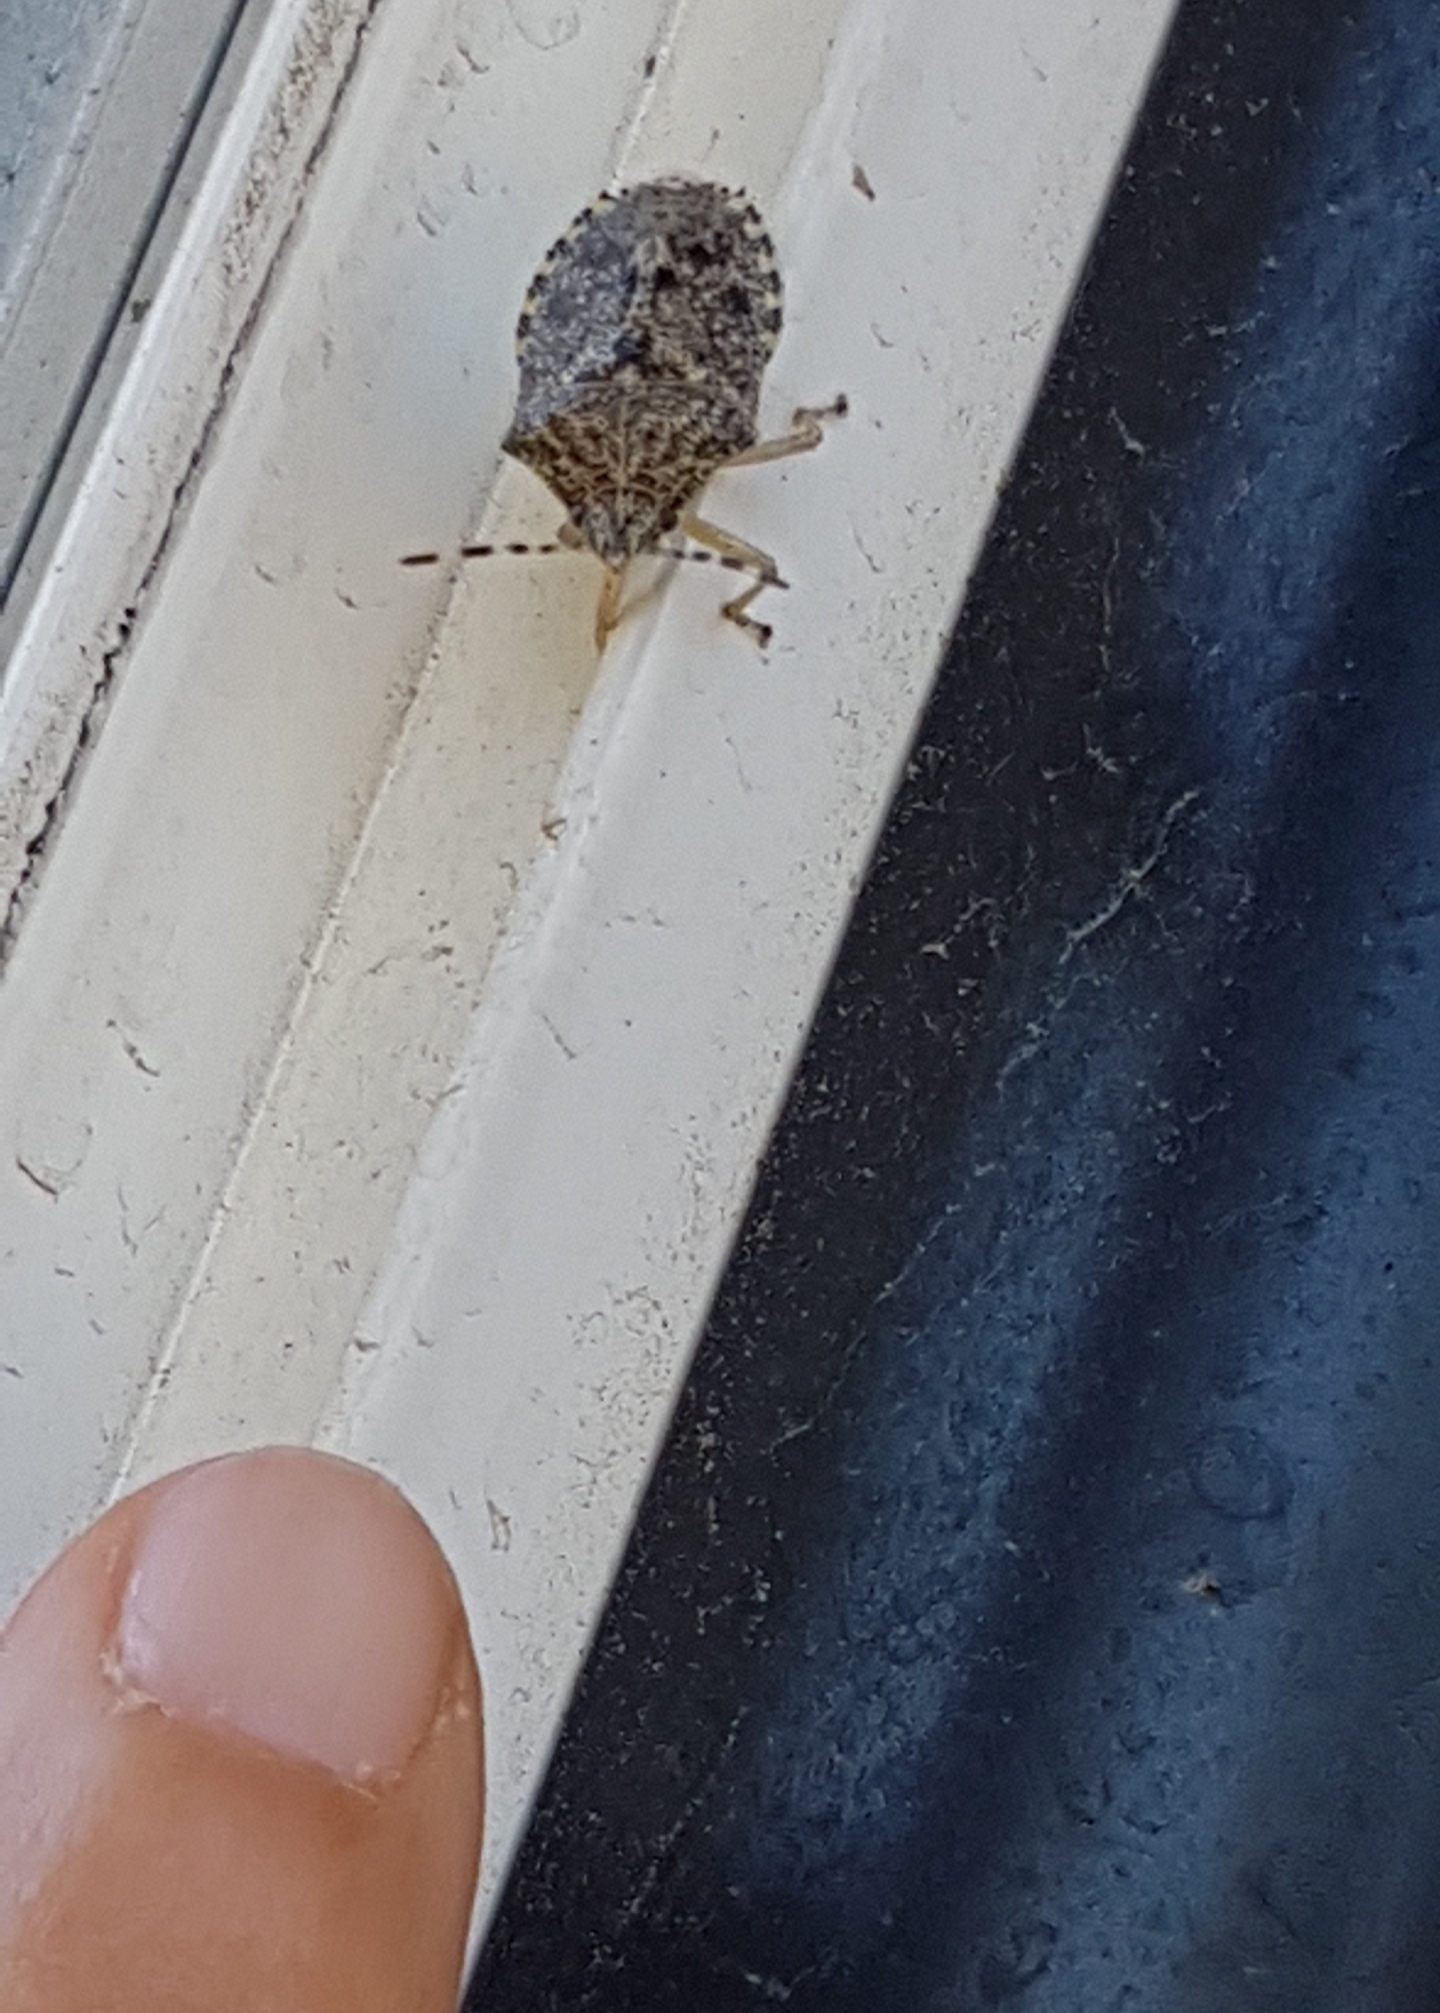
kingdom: Animalia
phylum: Arthropoda
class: Insecta
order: Hemiptera
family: Pentatomidae
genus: Rhaphigaster
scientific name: Rhaphigaster nebulosa
